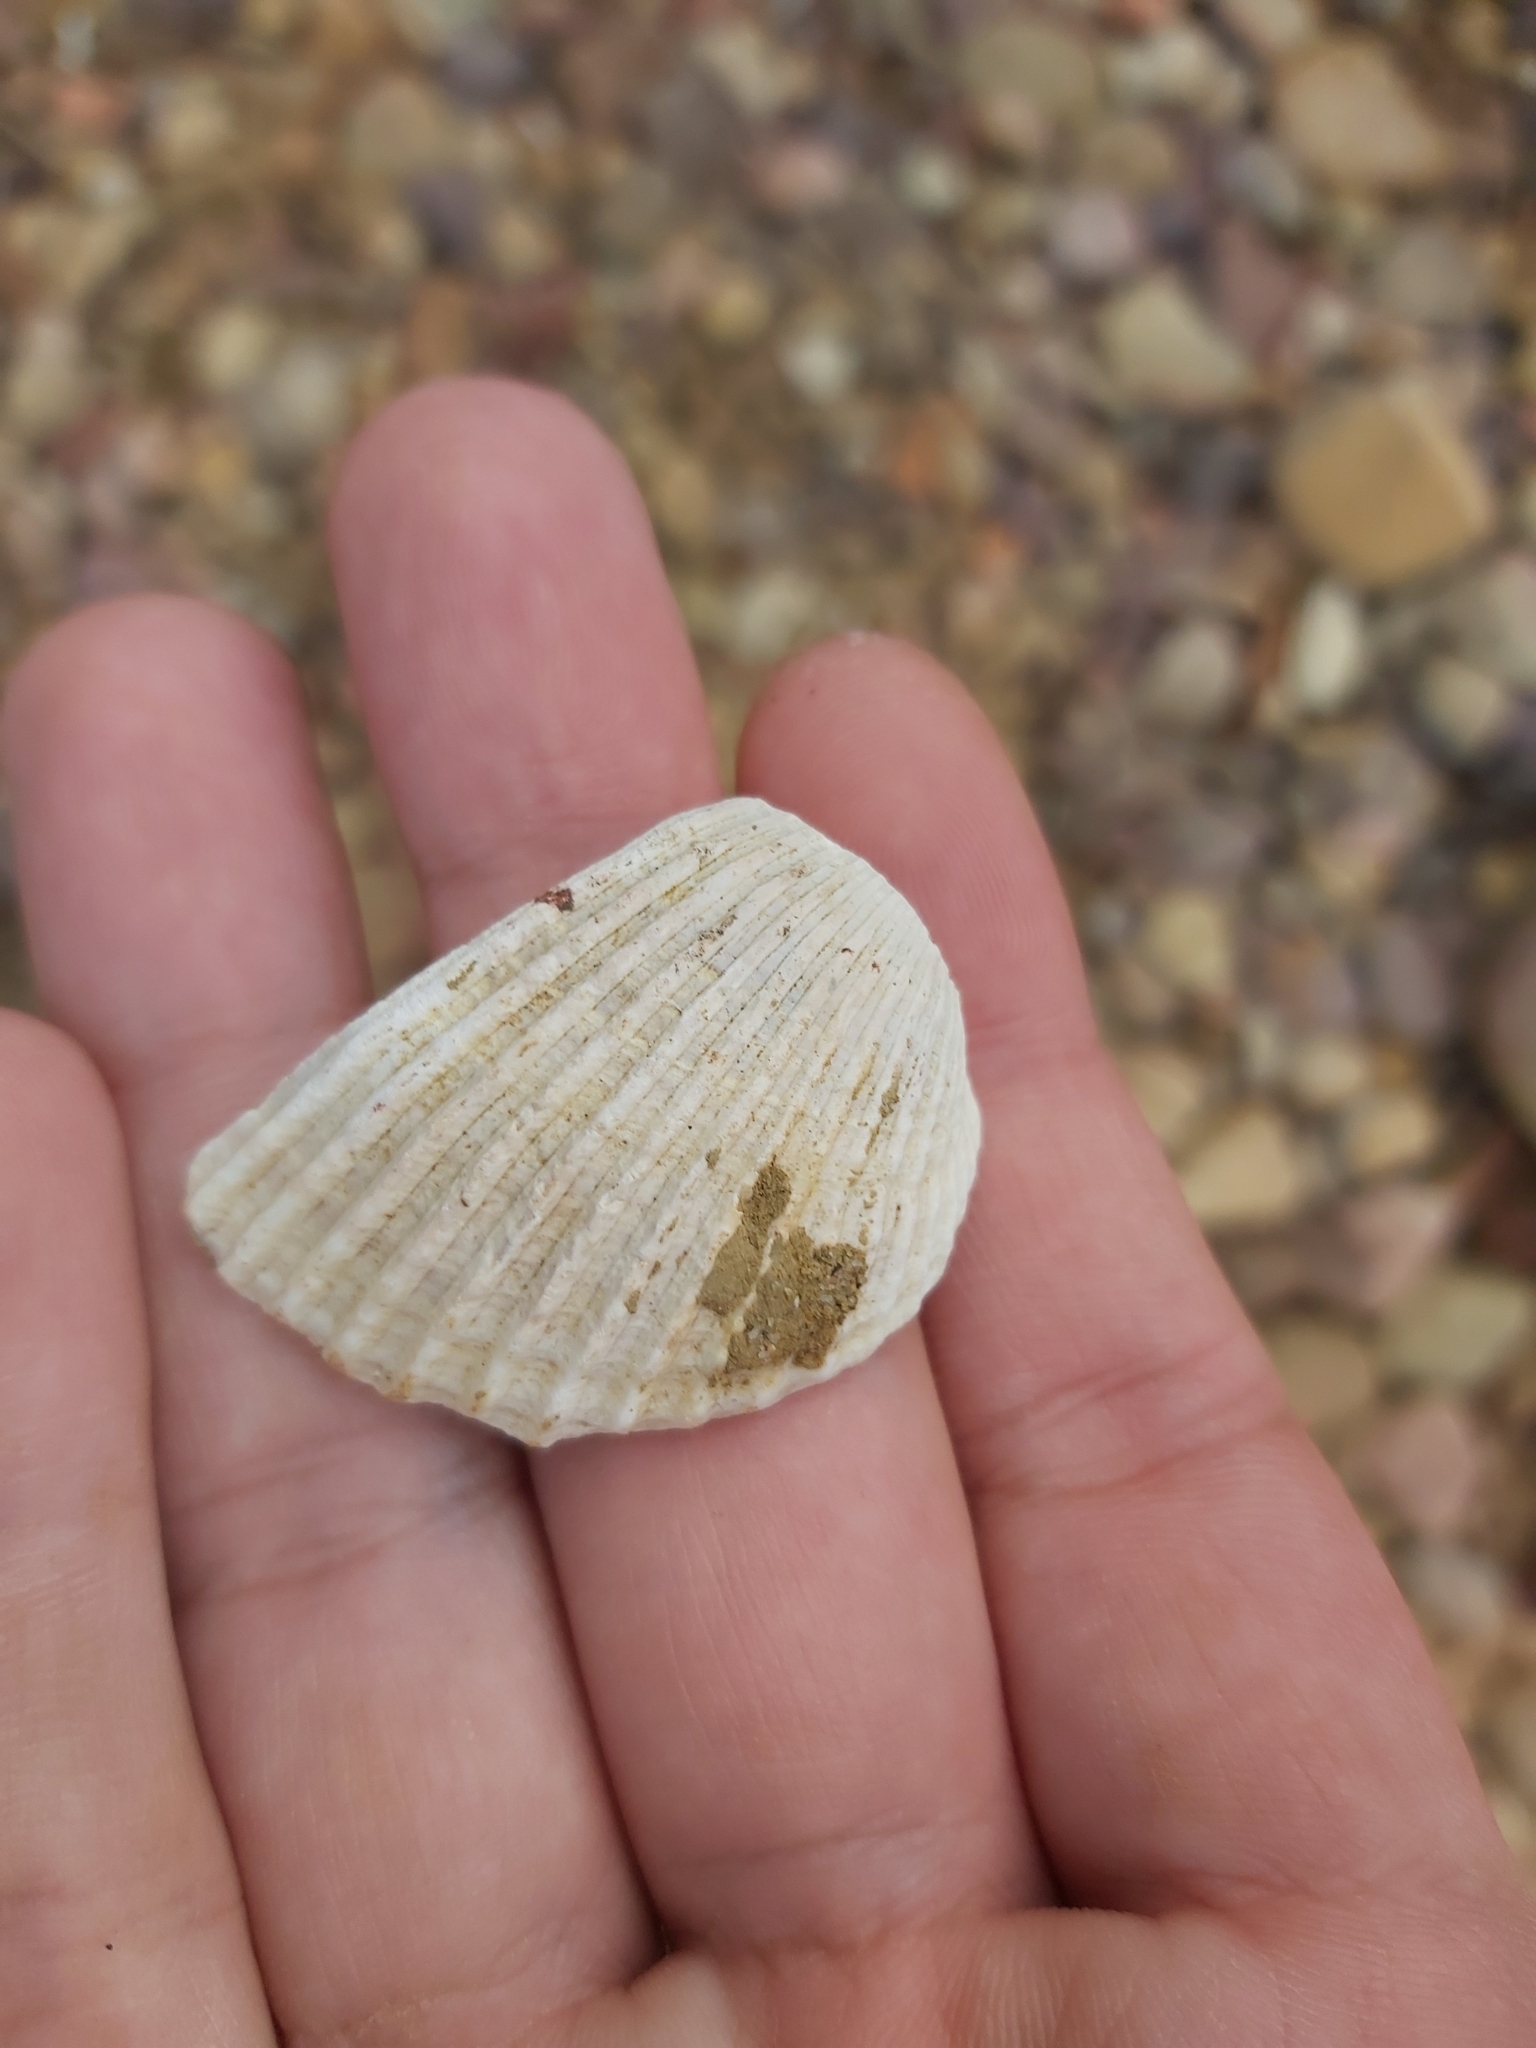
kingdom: Animalia
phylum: Mollusca
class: Bivalvia
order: Arcida
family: Arcidae
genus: Anadara
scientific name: Anadara trapezia
